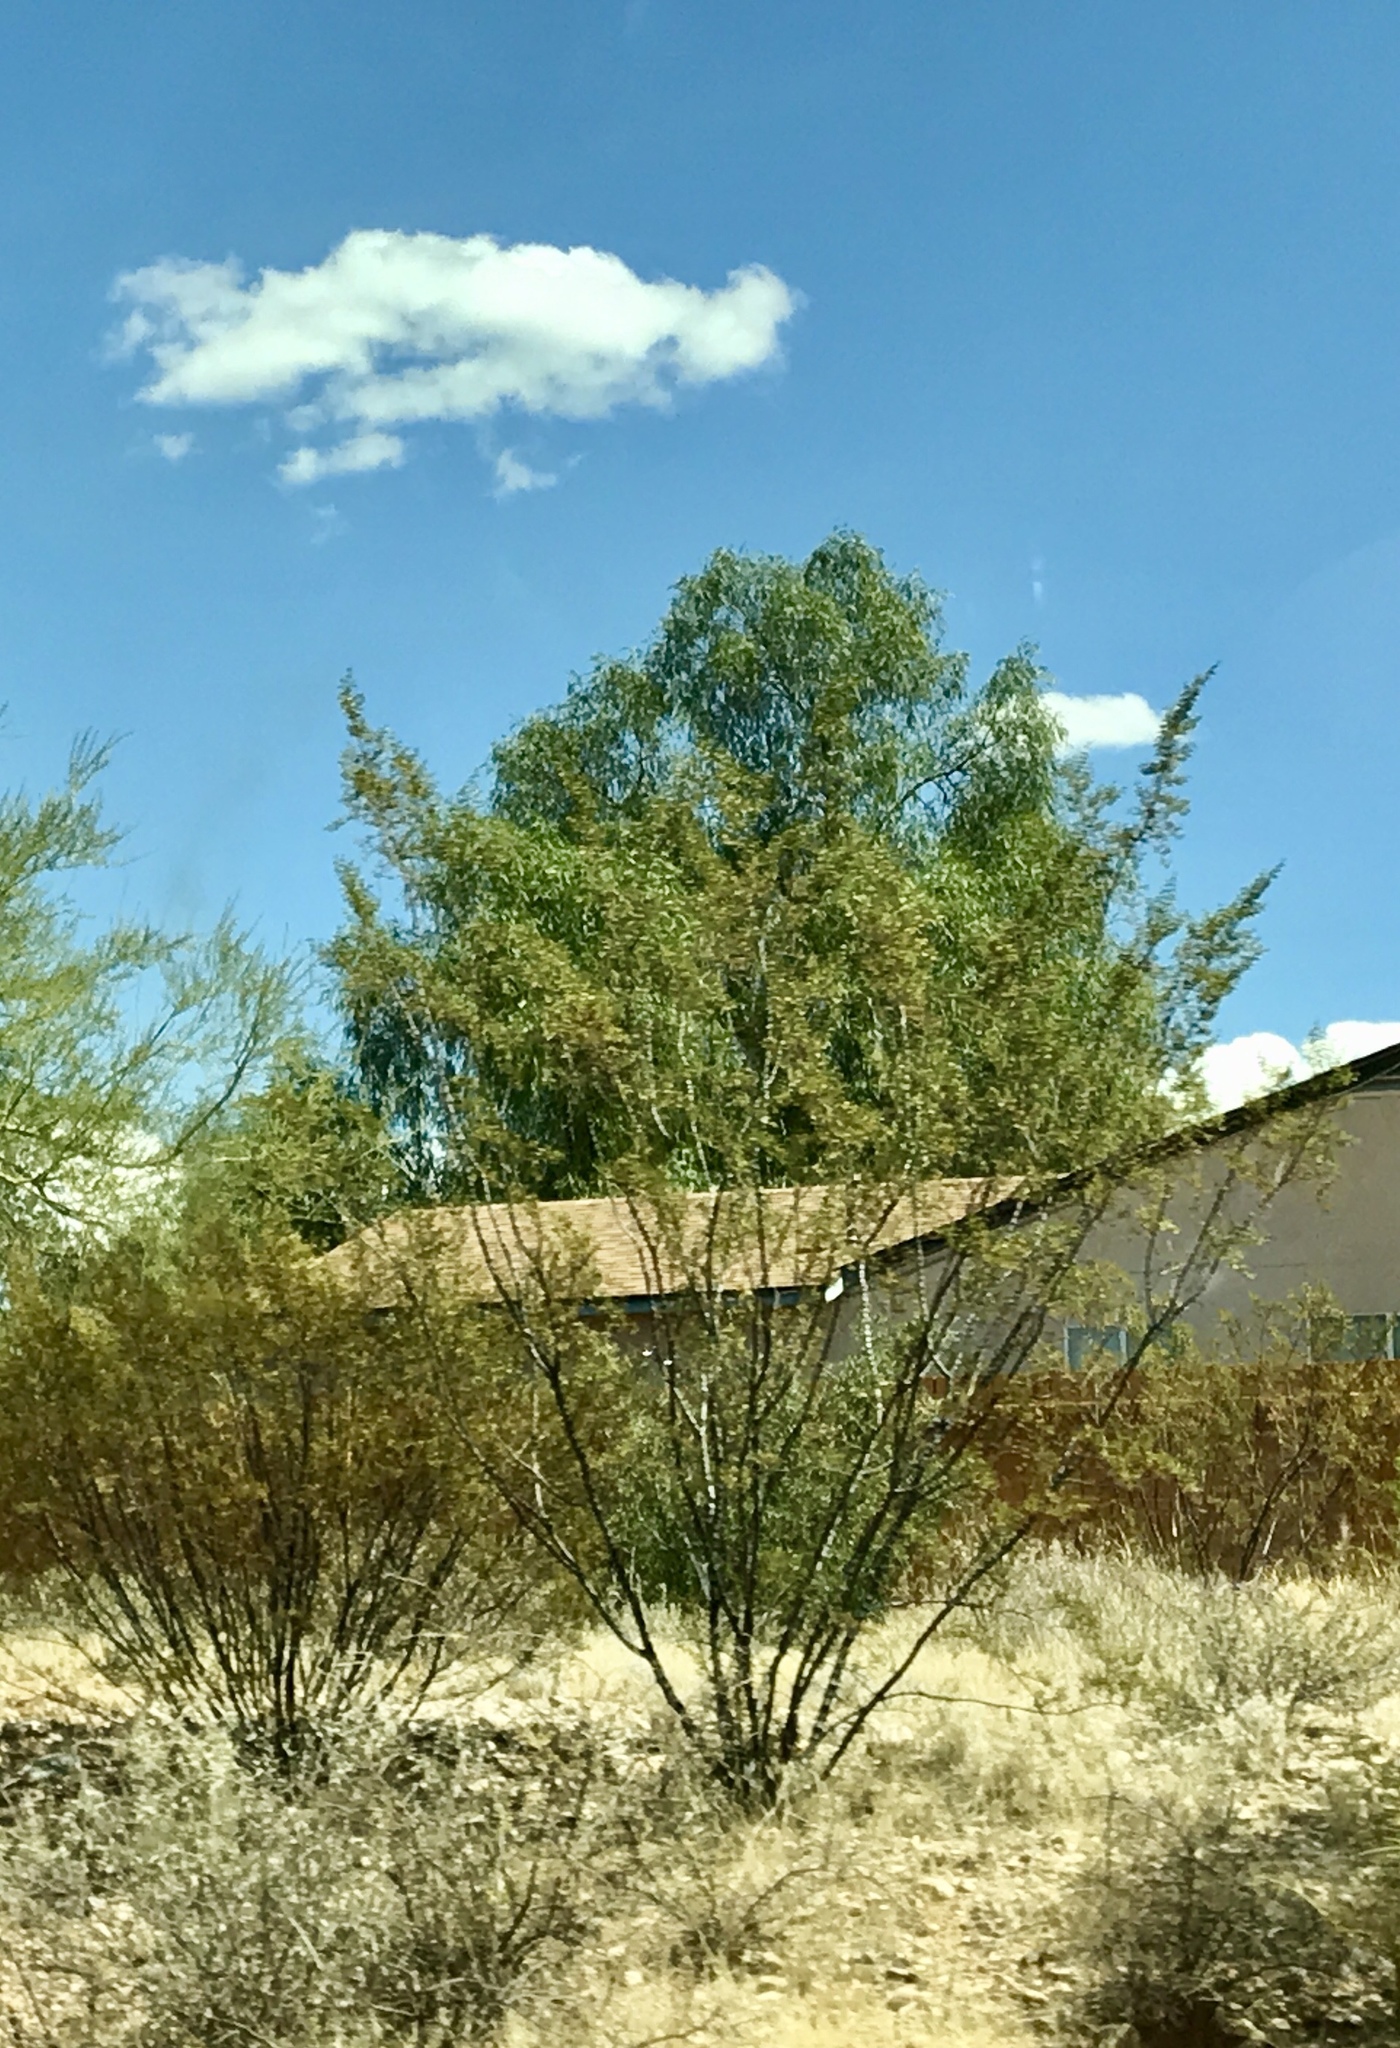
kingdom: Plantae
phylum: Tracheophyta
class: Magnoliopsida
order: Zygophyllales
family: Zygophyllaceae
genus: Larrea
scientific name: Larrea tridentata
